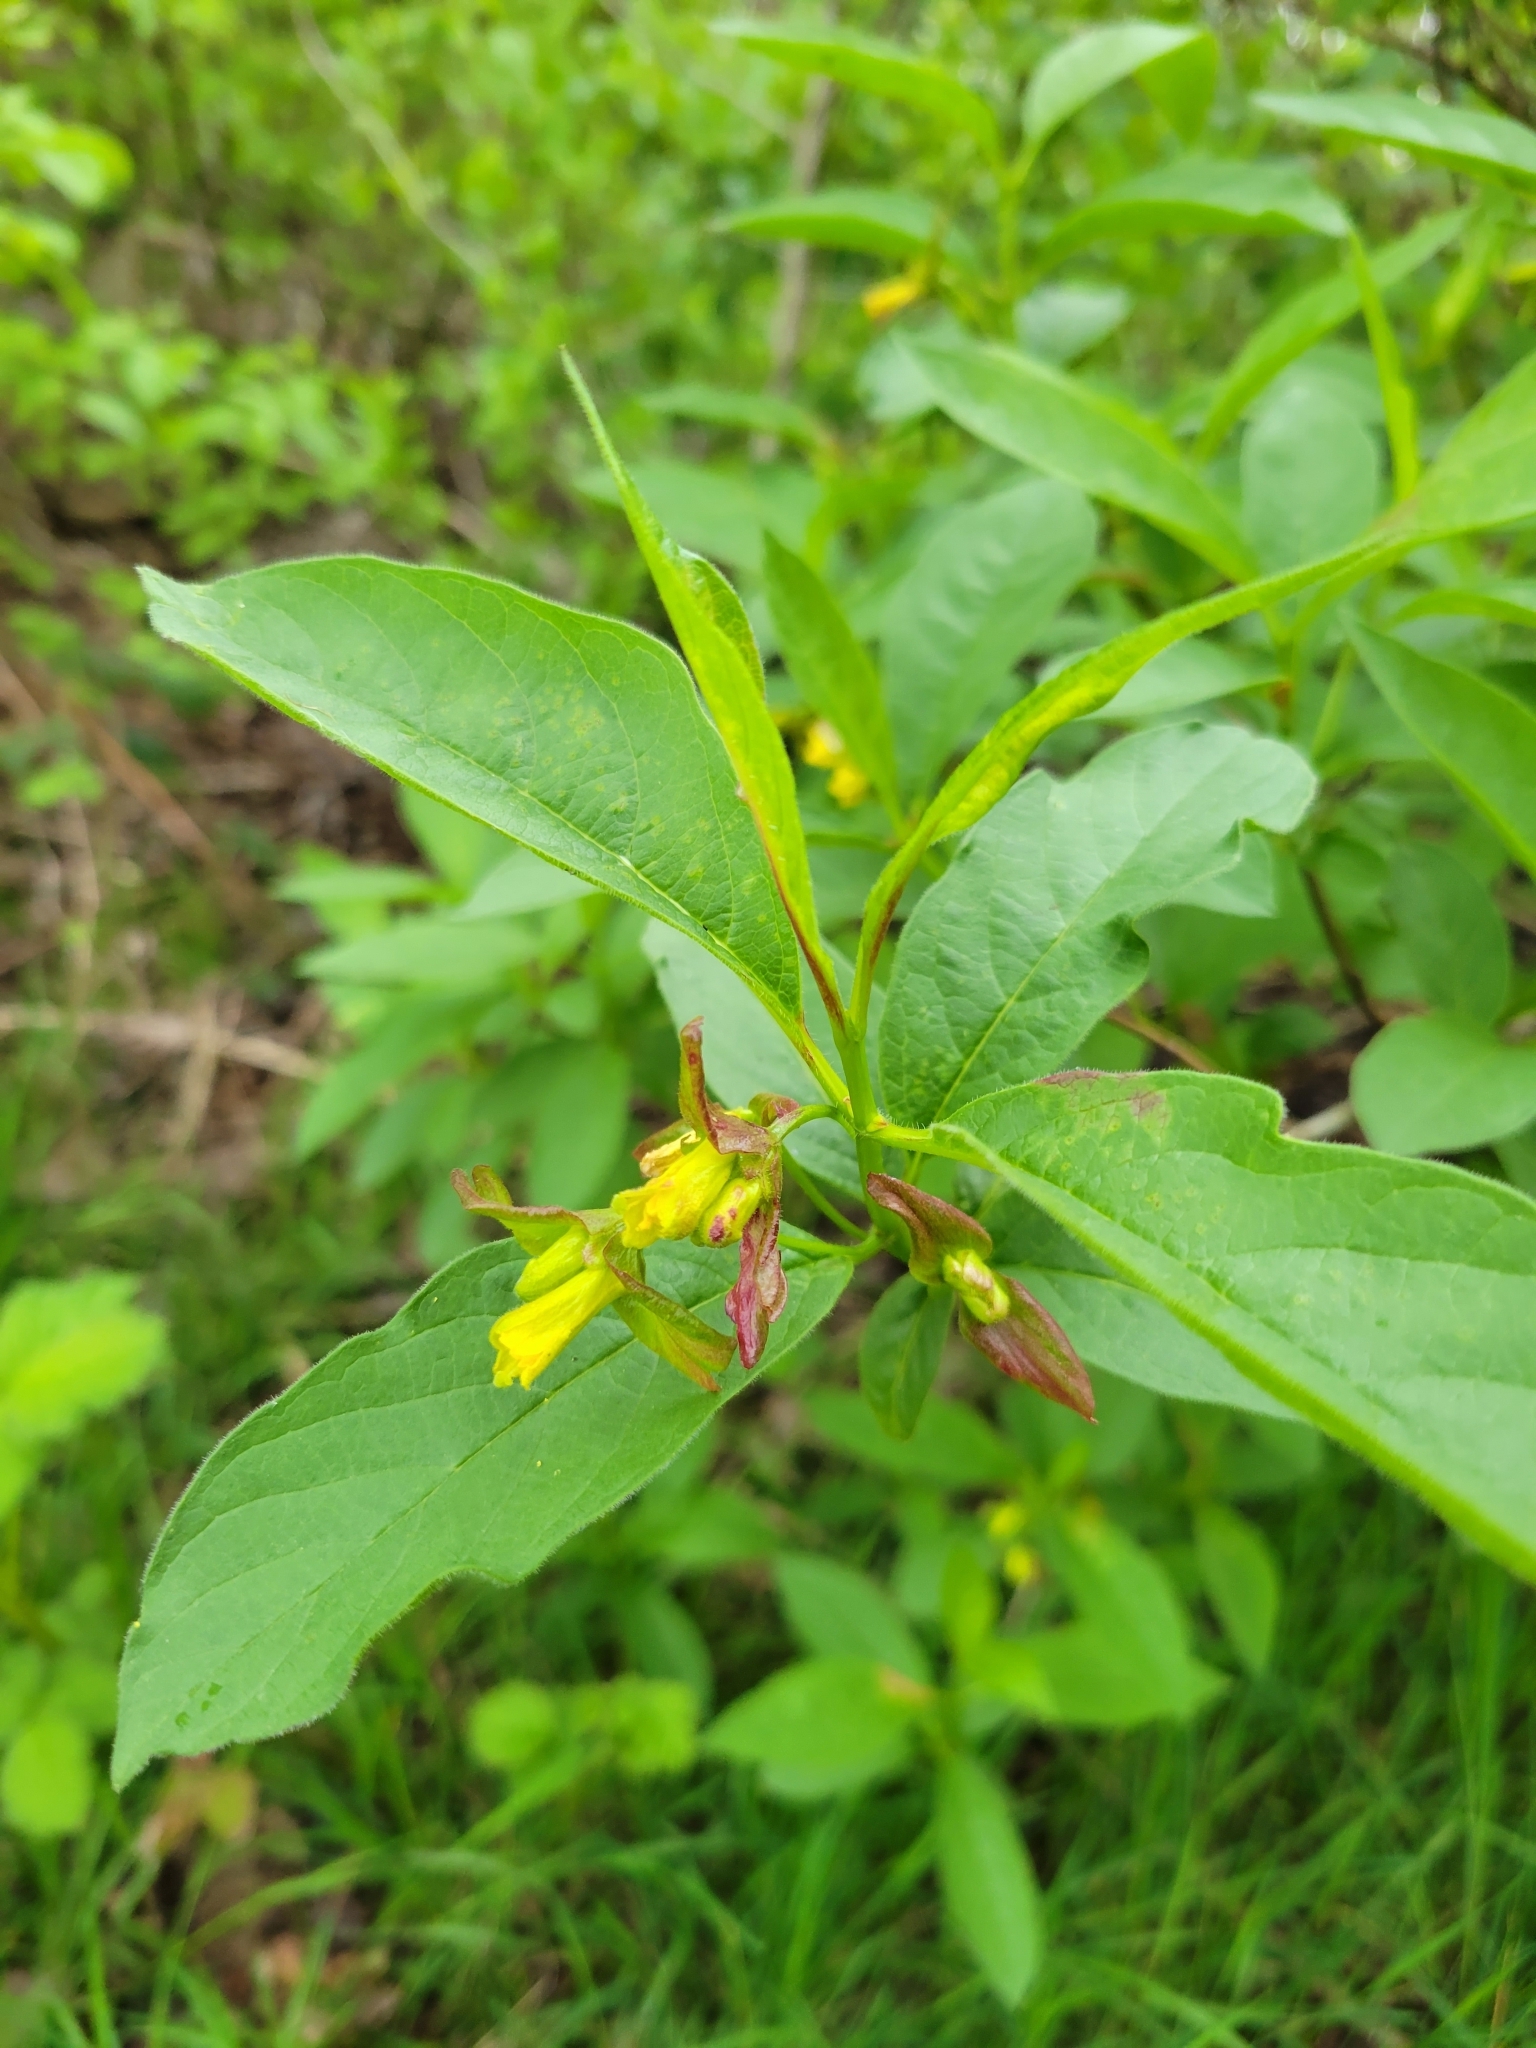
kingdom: Plantae
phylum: Tracheophyta
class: Magnoliopsida
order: Dipsacales
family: Caprifoliaceae
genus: Lonicera
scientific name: Lonicera involucrata
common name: Californian honeysuckle
